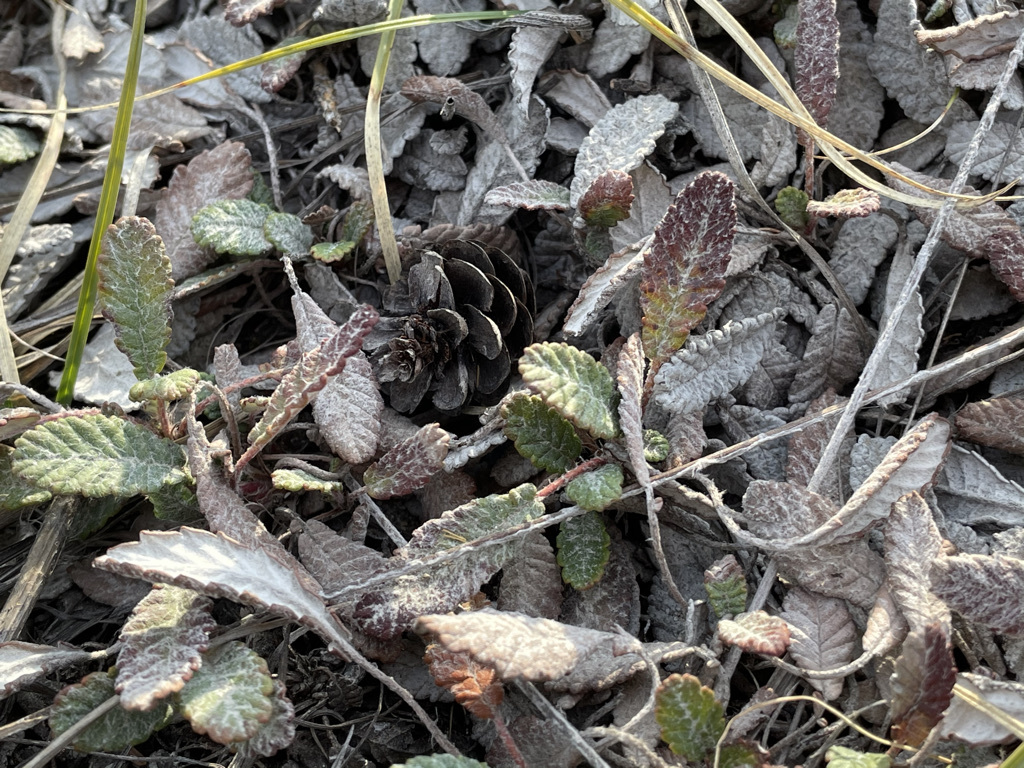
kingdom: Plantae
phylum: Tracheophyta
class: Magnoliopsida
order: Rosales
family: Rosaceae
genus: Dryas
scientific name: Dryas drummondii
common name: Drummond's dryad
